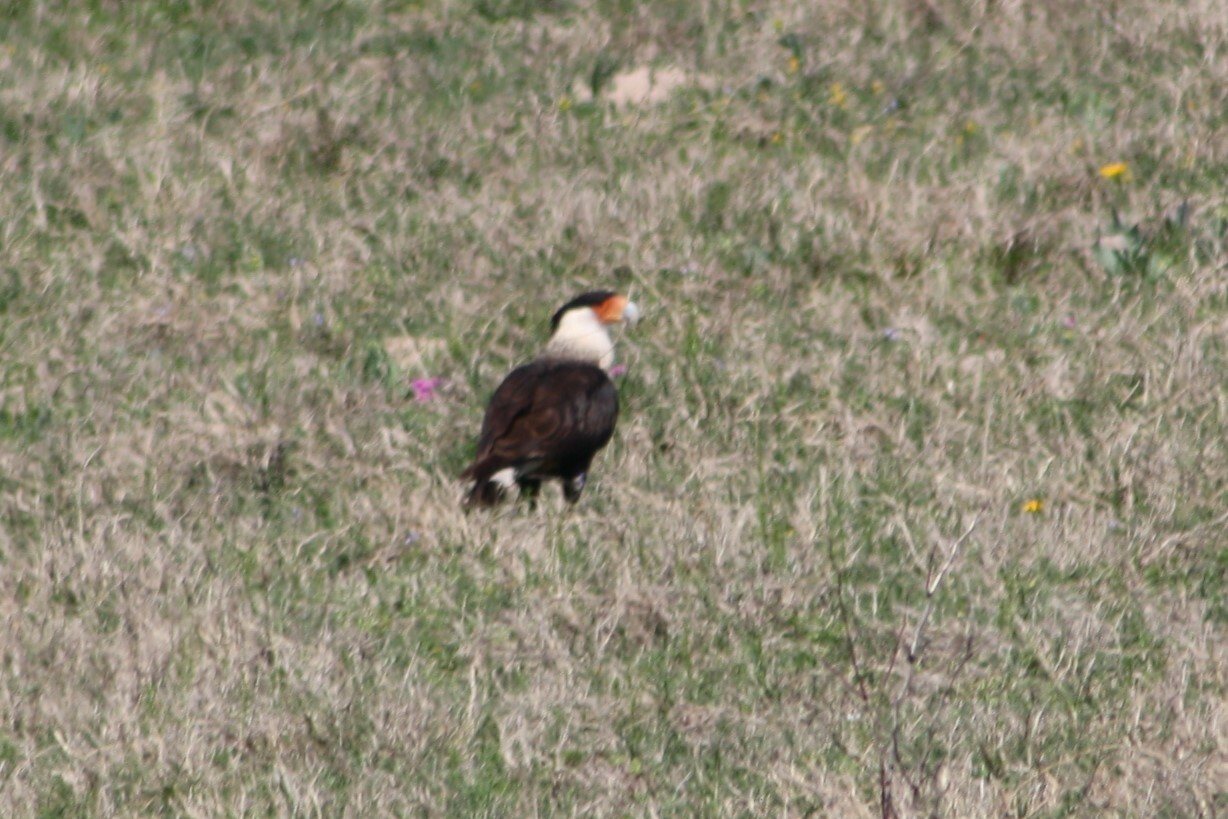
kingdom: Animalia
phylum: Chordata
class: Aves
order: Falconiformes
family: Falconidae
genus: Caracara
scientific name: Caracara plancus
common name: Southern caracara
